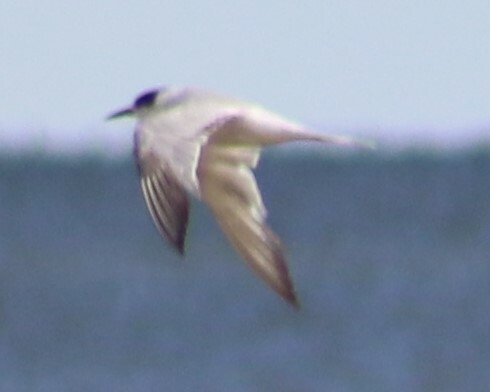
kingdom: Animalia
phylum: Chordata
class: Aves
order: Charadriiformes
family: Laridae
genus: Sterna
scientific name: Sterna forsteri
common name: Forster's tern
